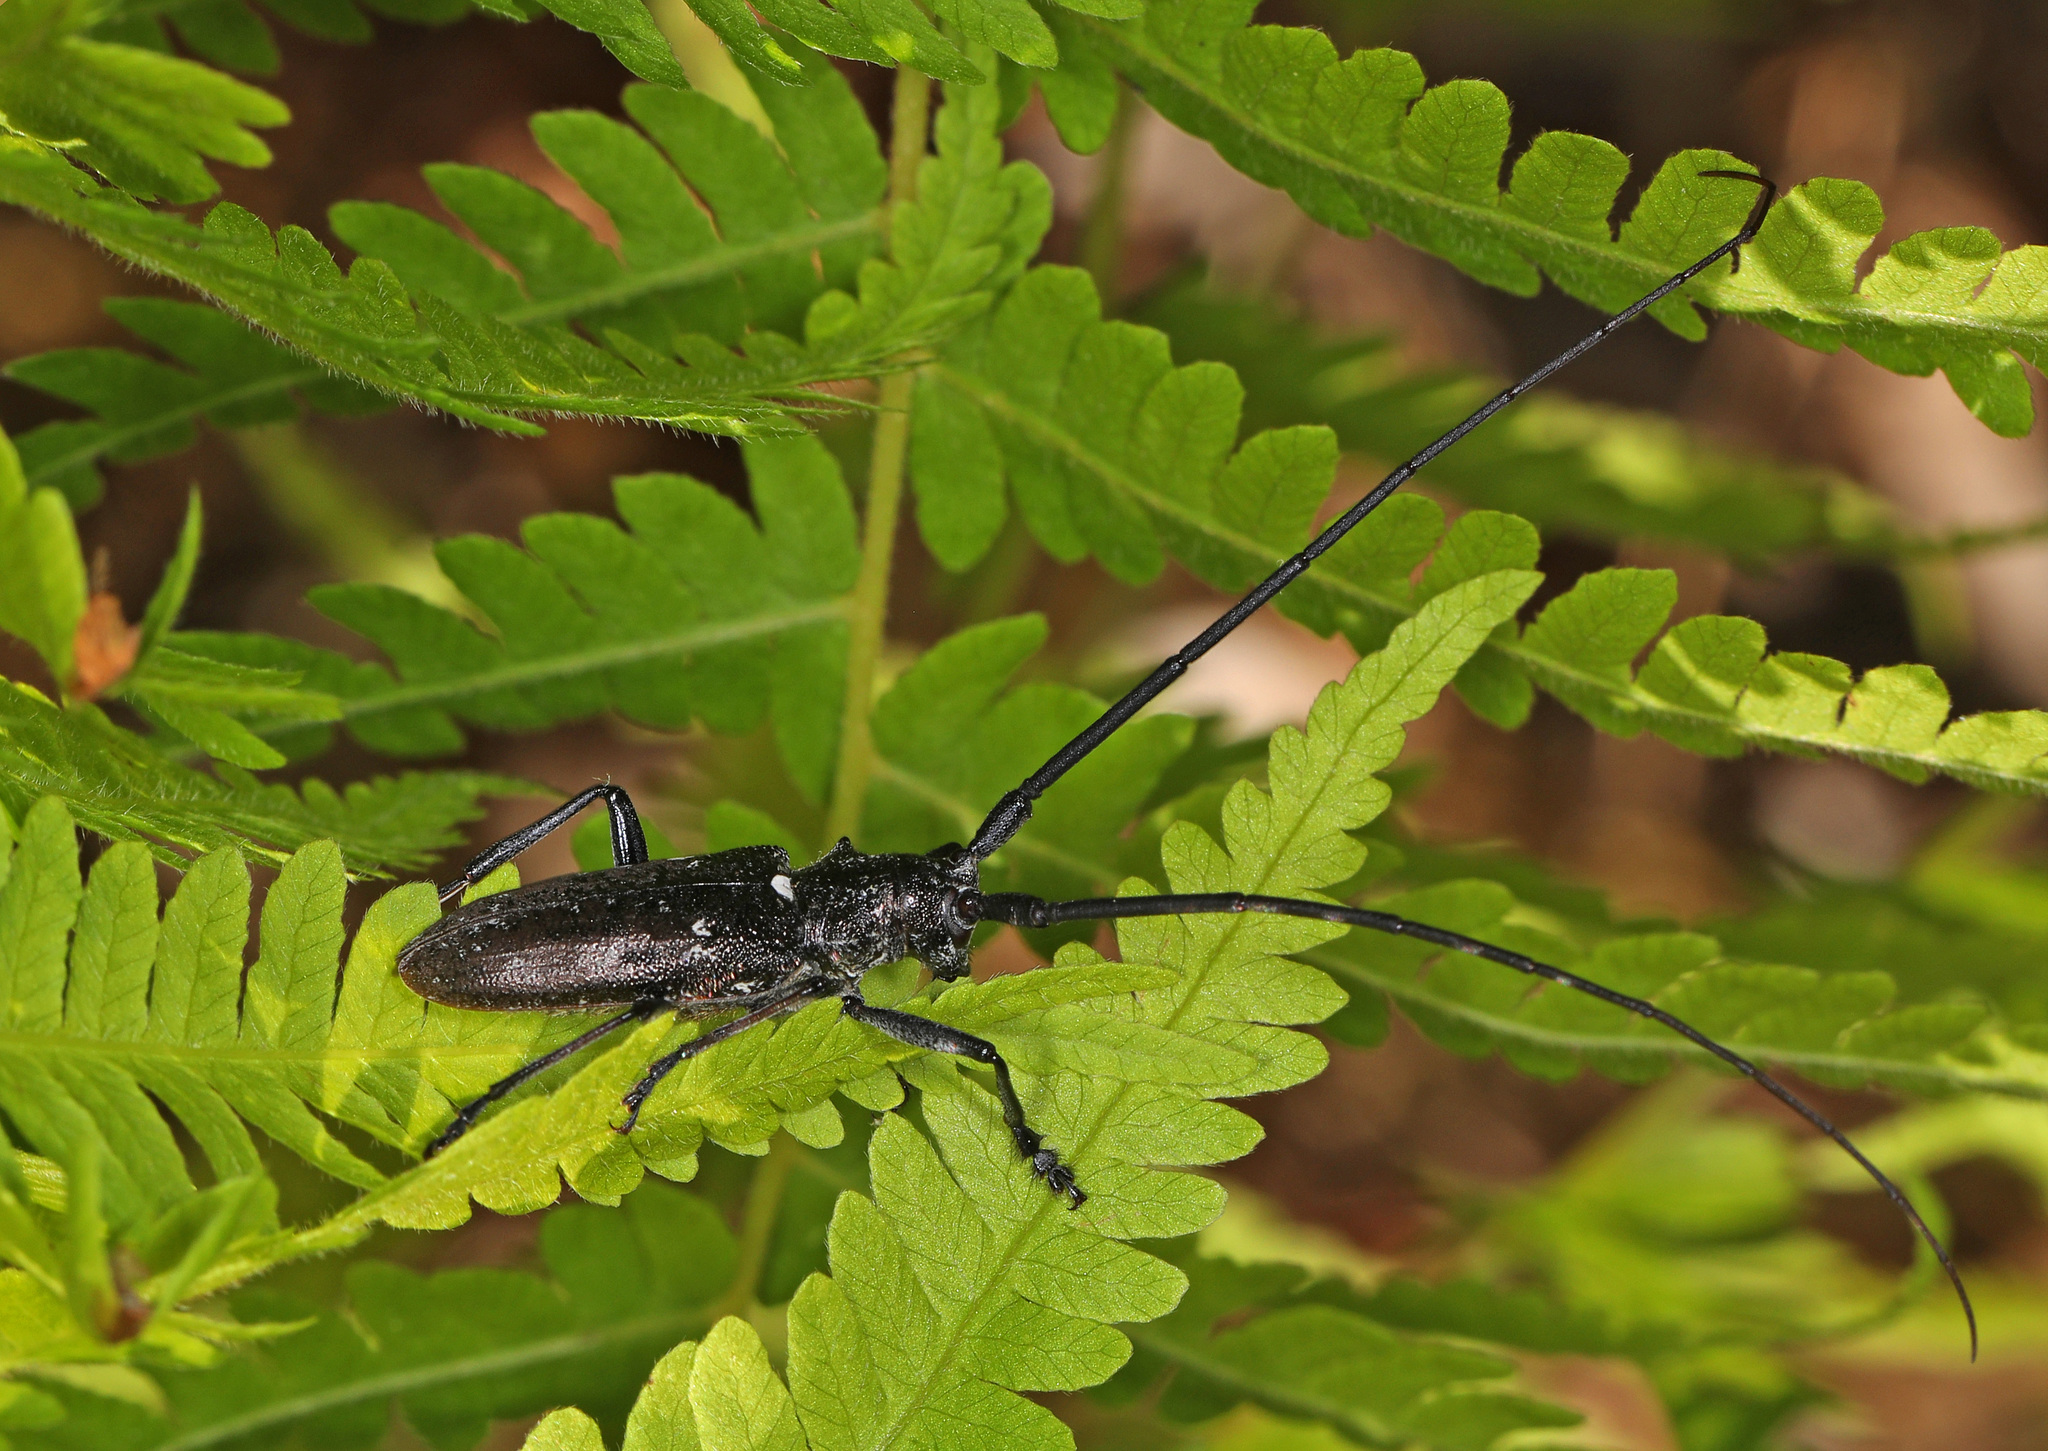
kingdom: Animalia
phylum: Arthropoda
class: Insecta
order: Coleoptera
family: Cerambycidae
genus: Monochamus
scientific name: Monochamus scutellatus
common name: White-spotted sawyer beetle
